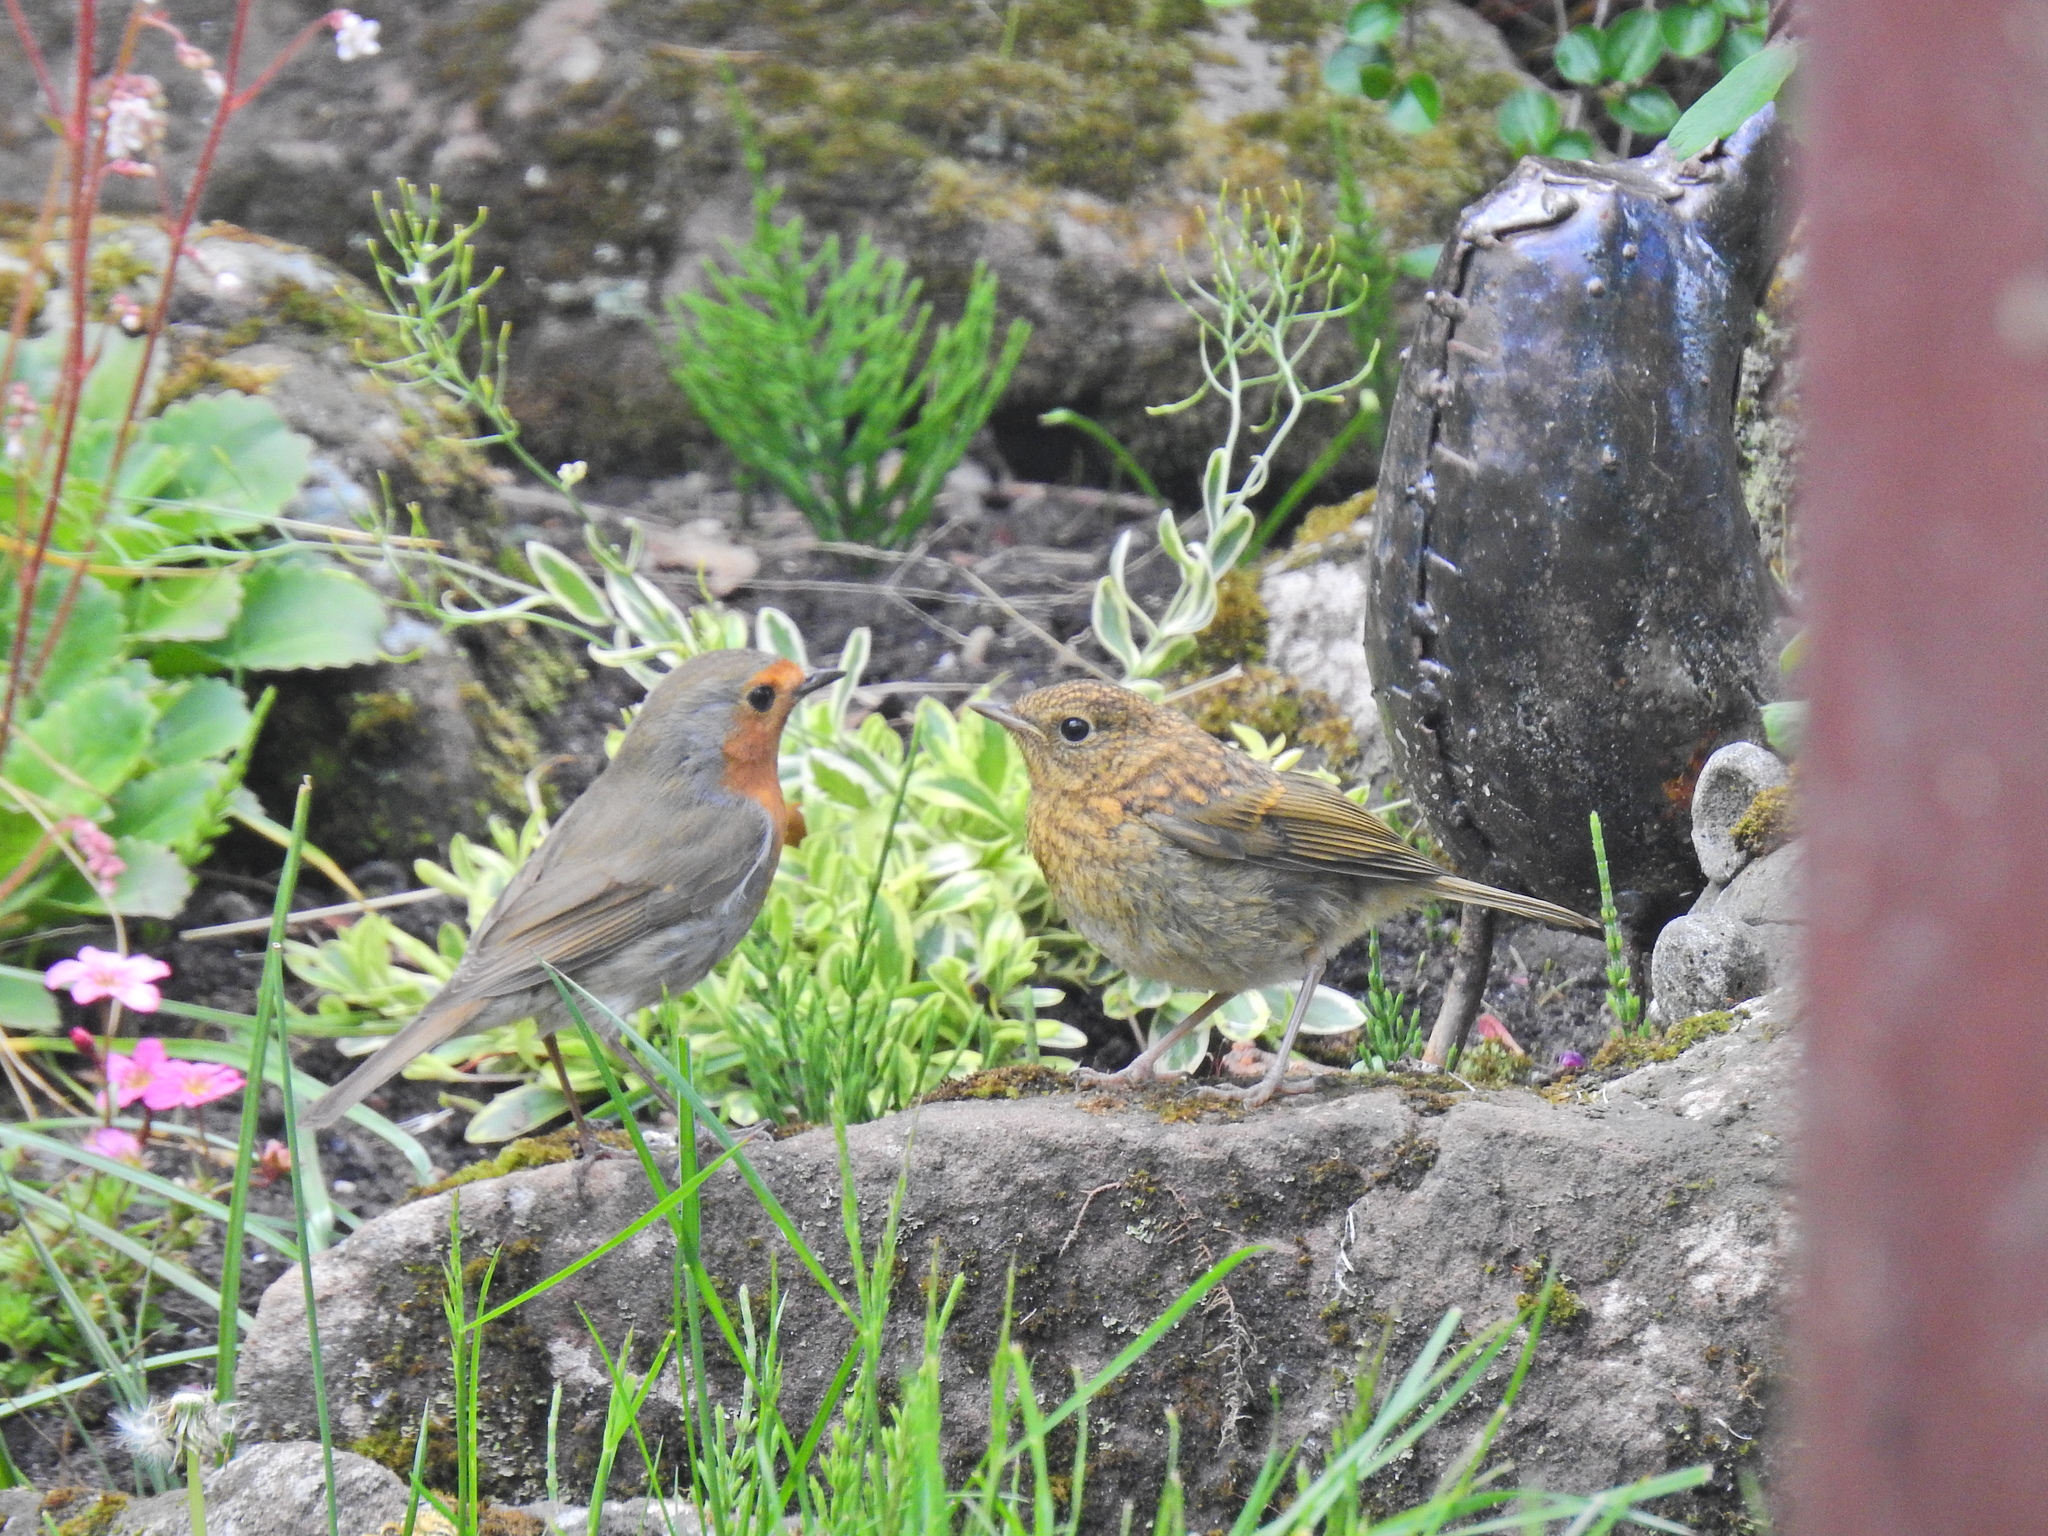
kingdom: Animalia
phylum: Chordata
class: Aves
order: Passeriformes
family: Muscicapidae
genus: Erithacus
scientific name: Erithacus rubecula
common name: European robin
